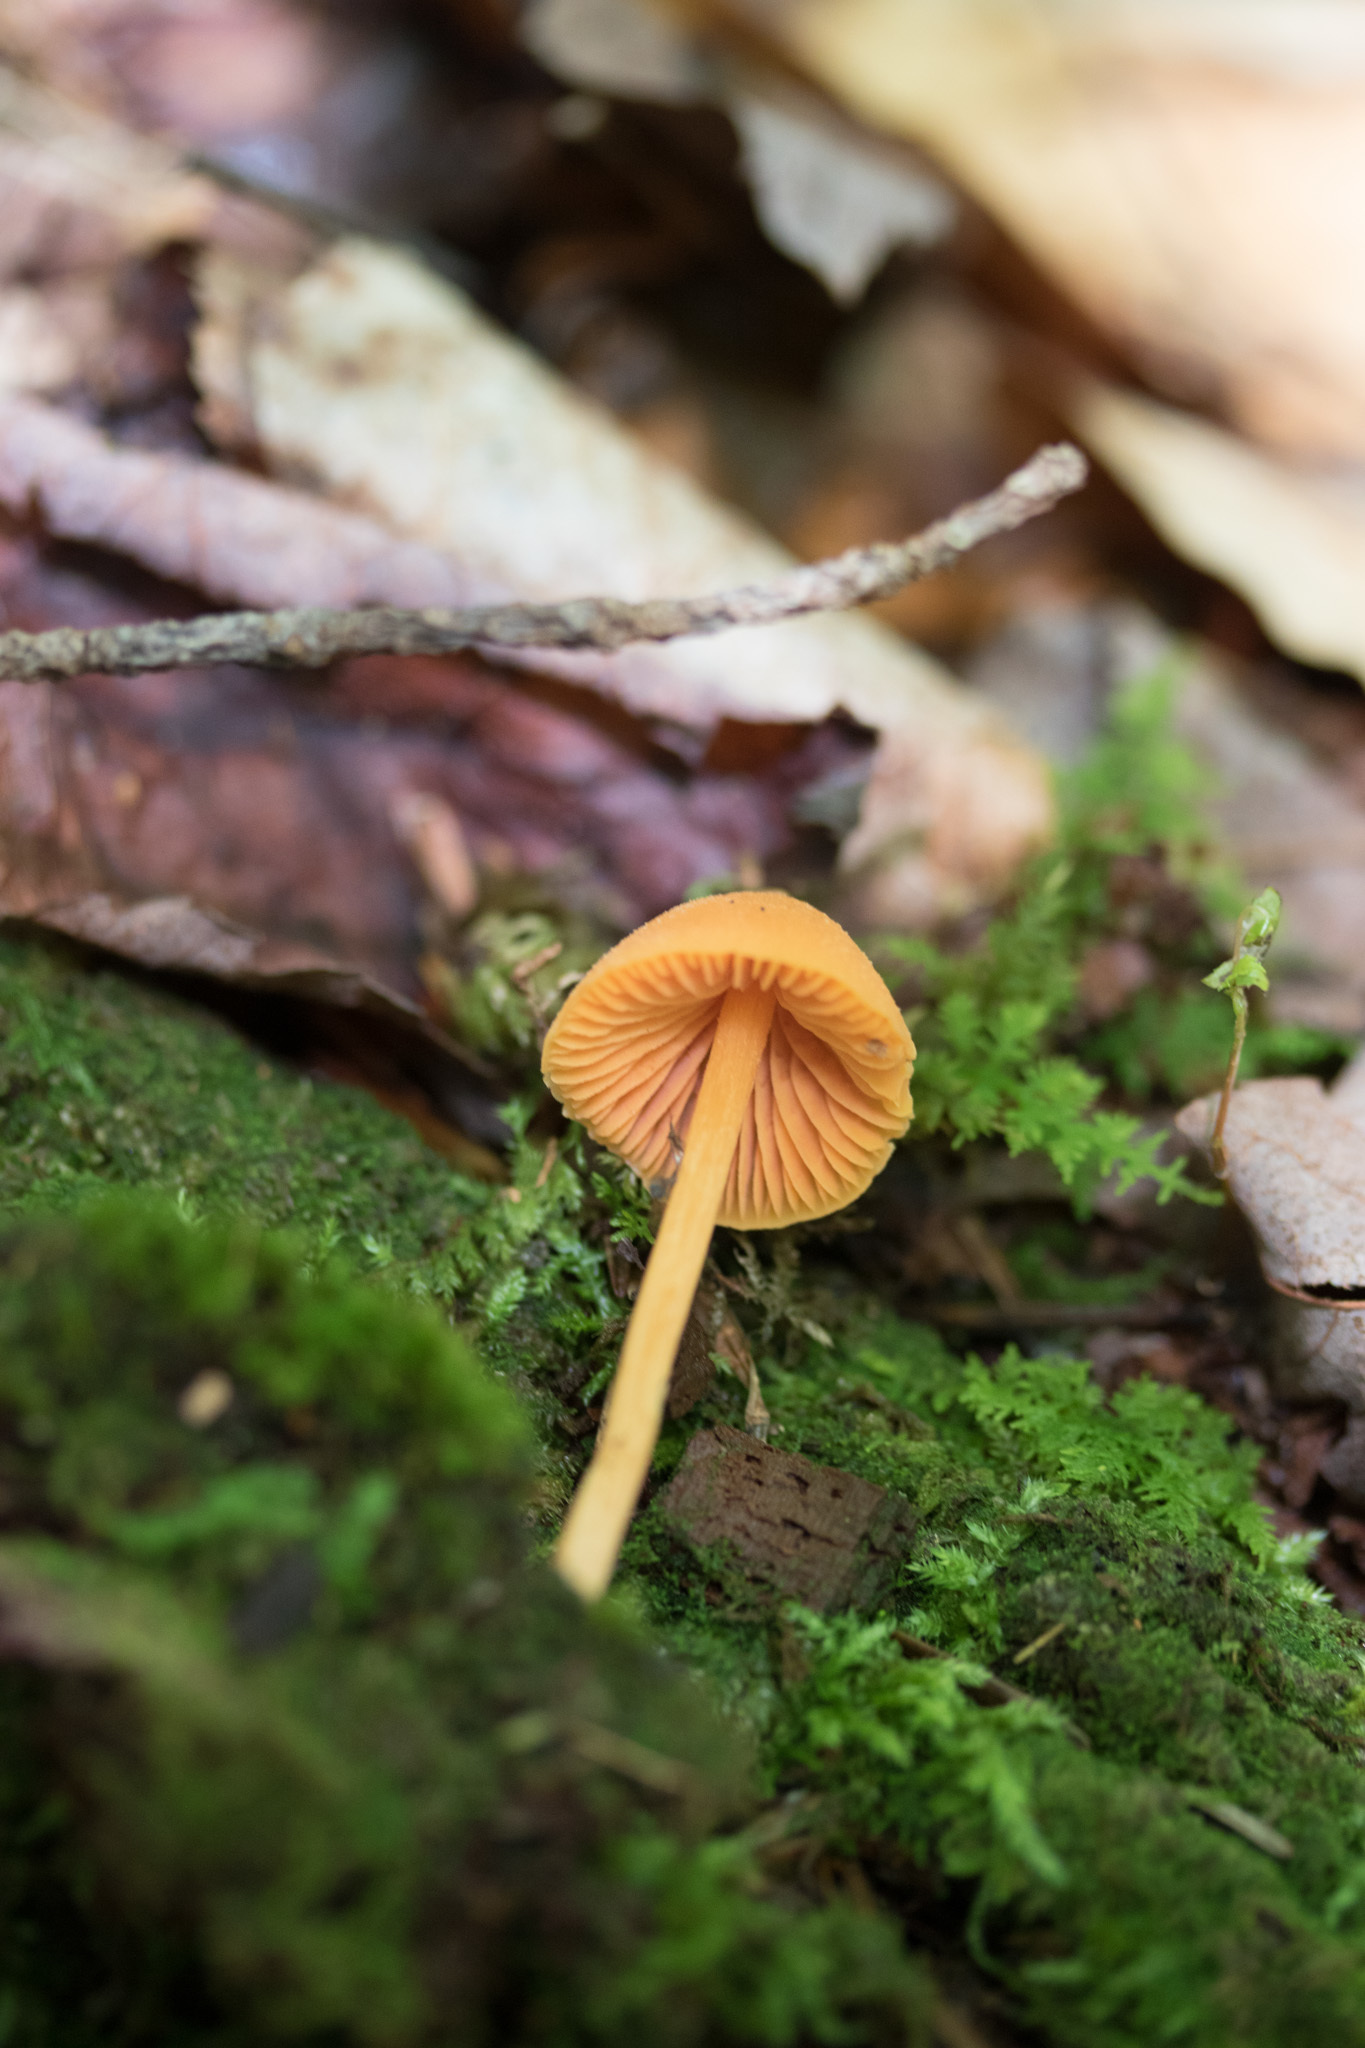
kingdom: Fungi
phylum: Basidiomycota
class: Agaricomycetes
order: Agaricales
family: Entolomataceae
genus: Entoloma
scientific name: Entoloma quadratum
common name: Salmon pinkgill
